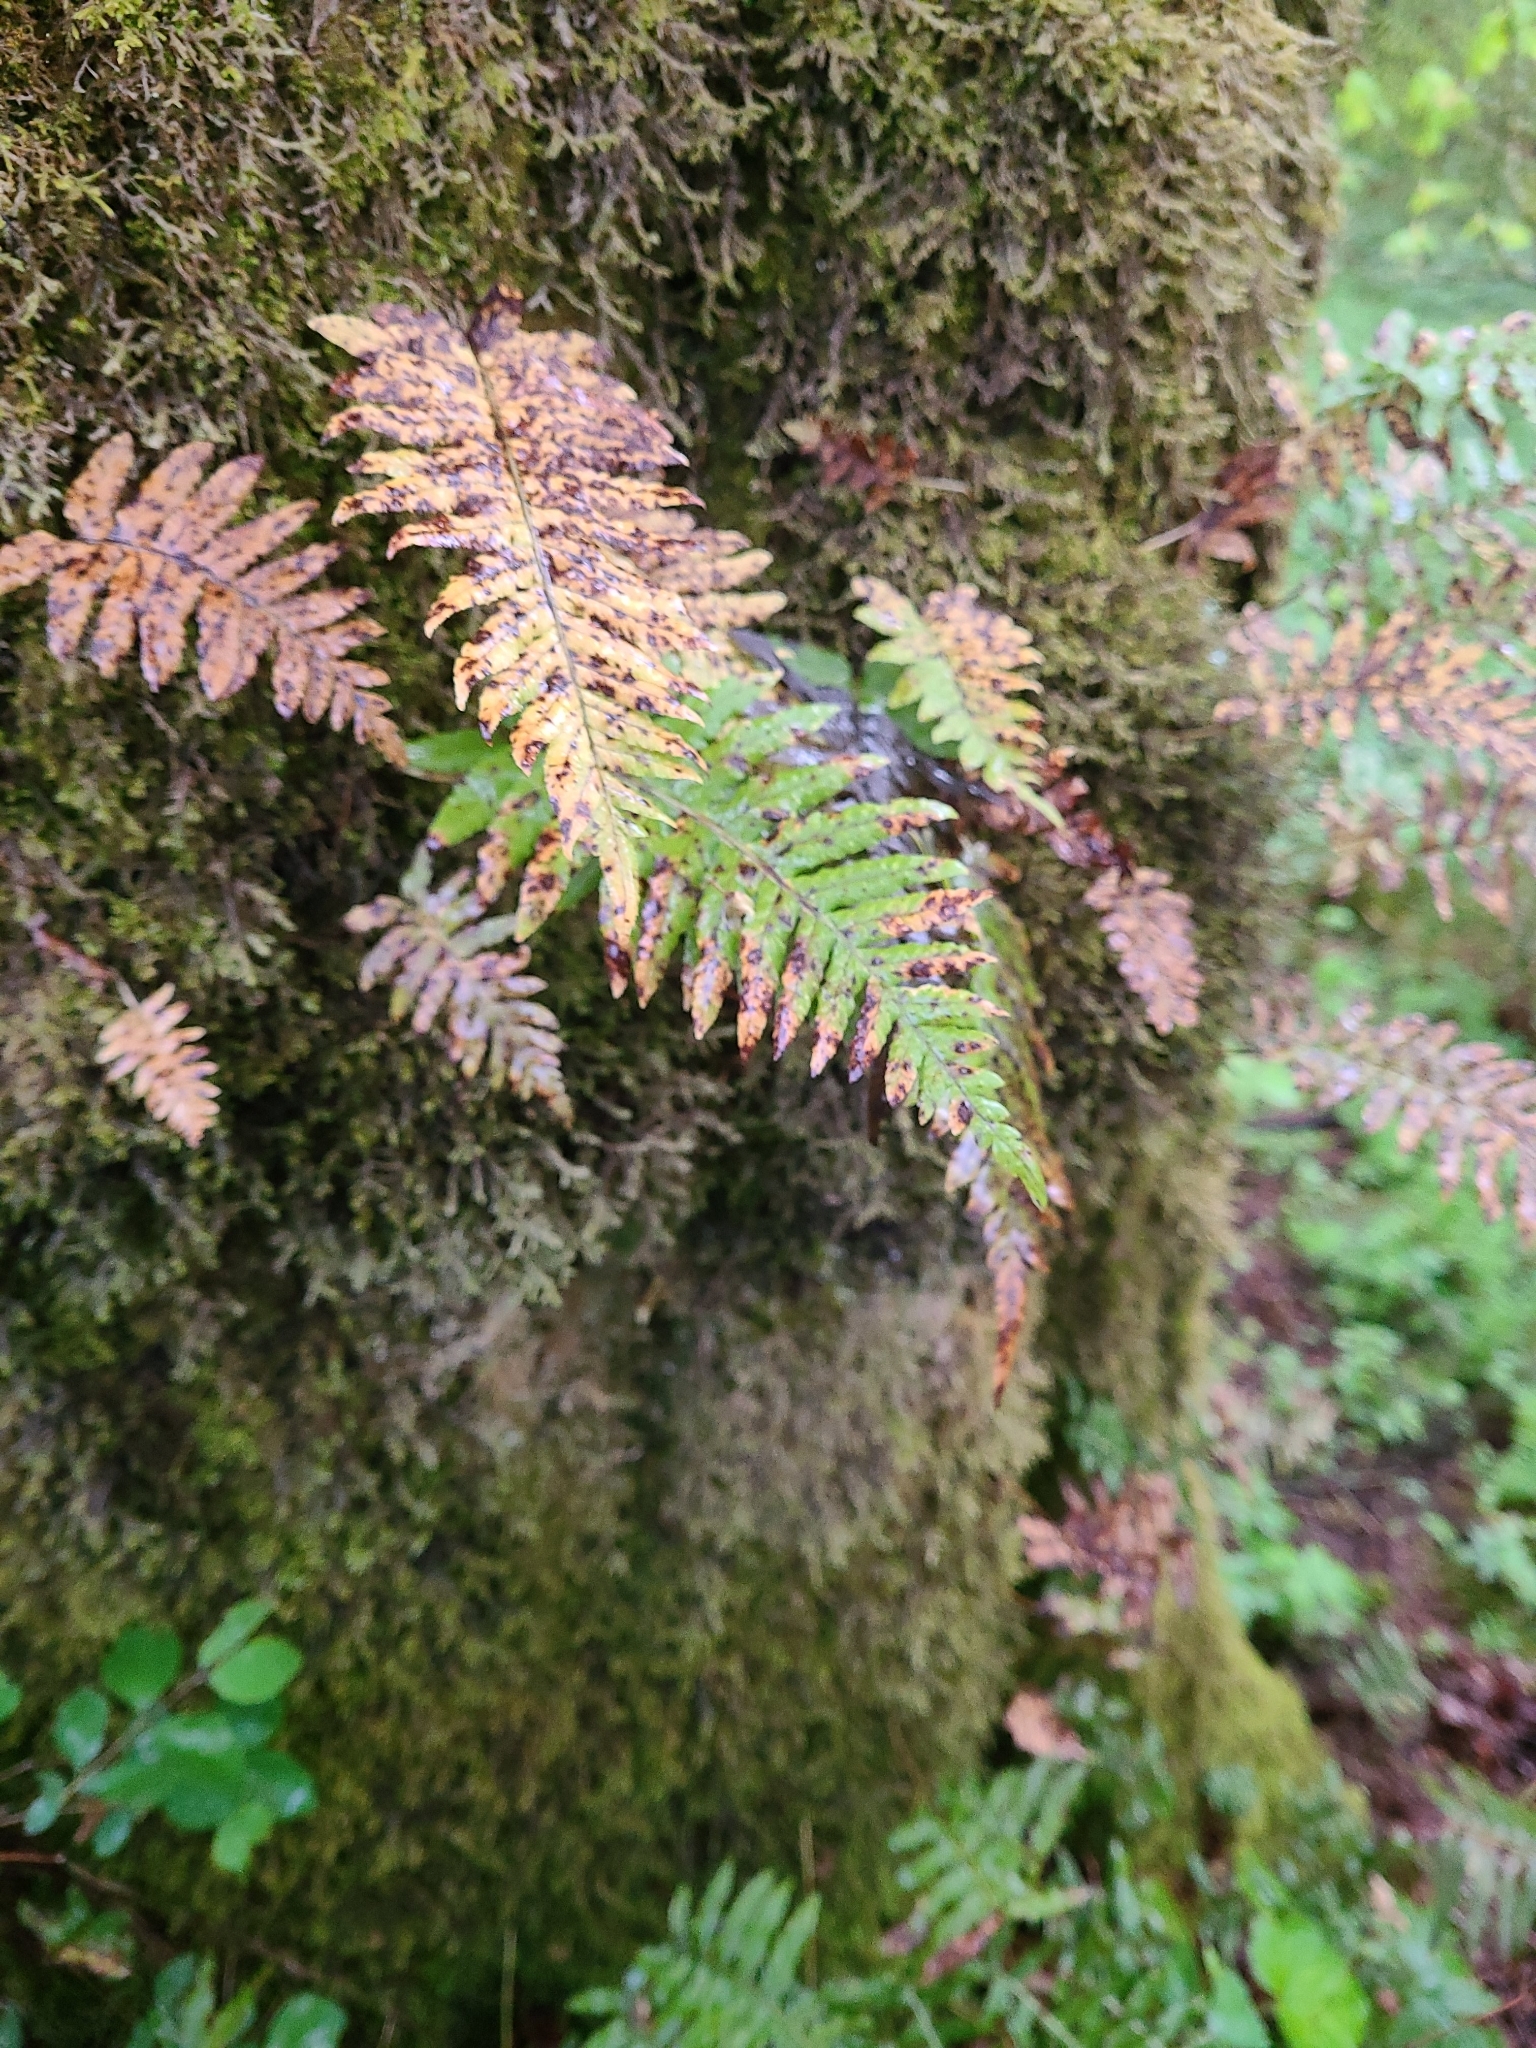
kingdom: Plantae
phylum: Tracheophyta
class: Polypodiopsida
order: Polypodiales
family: Polypodiaceae
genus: Polypodium
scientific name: Polypodium glycyrrhiza
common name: Licorice fern
